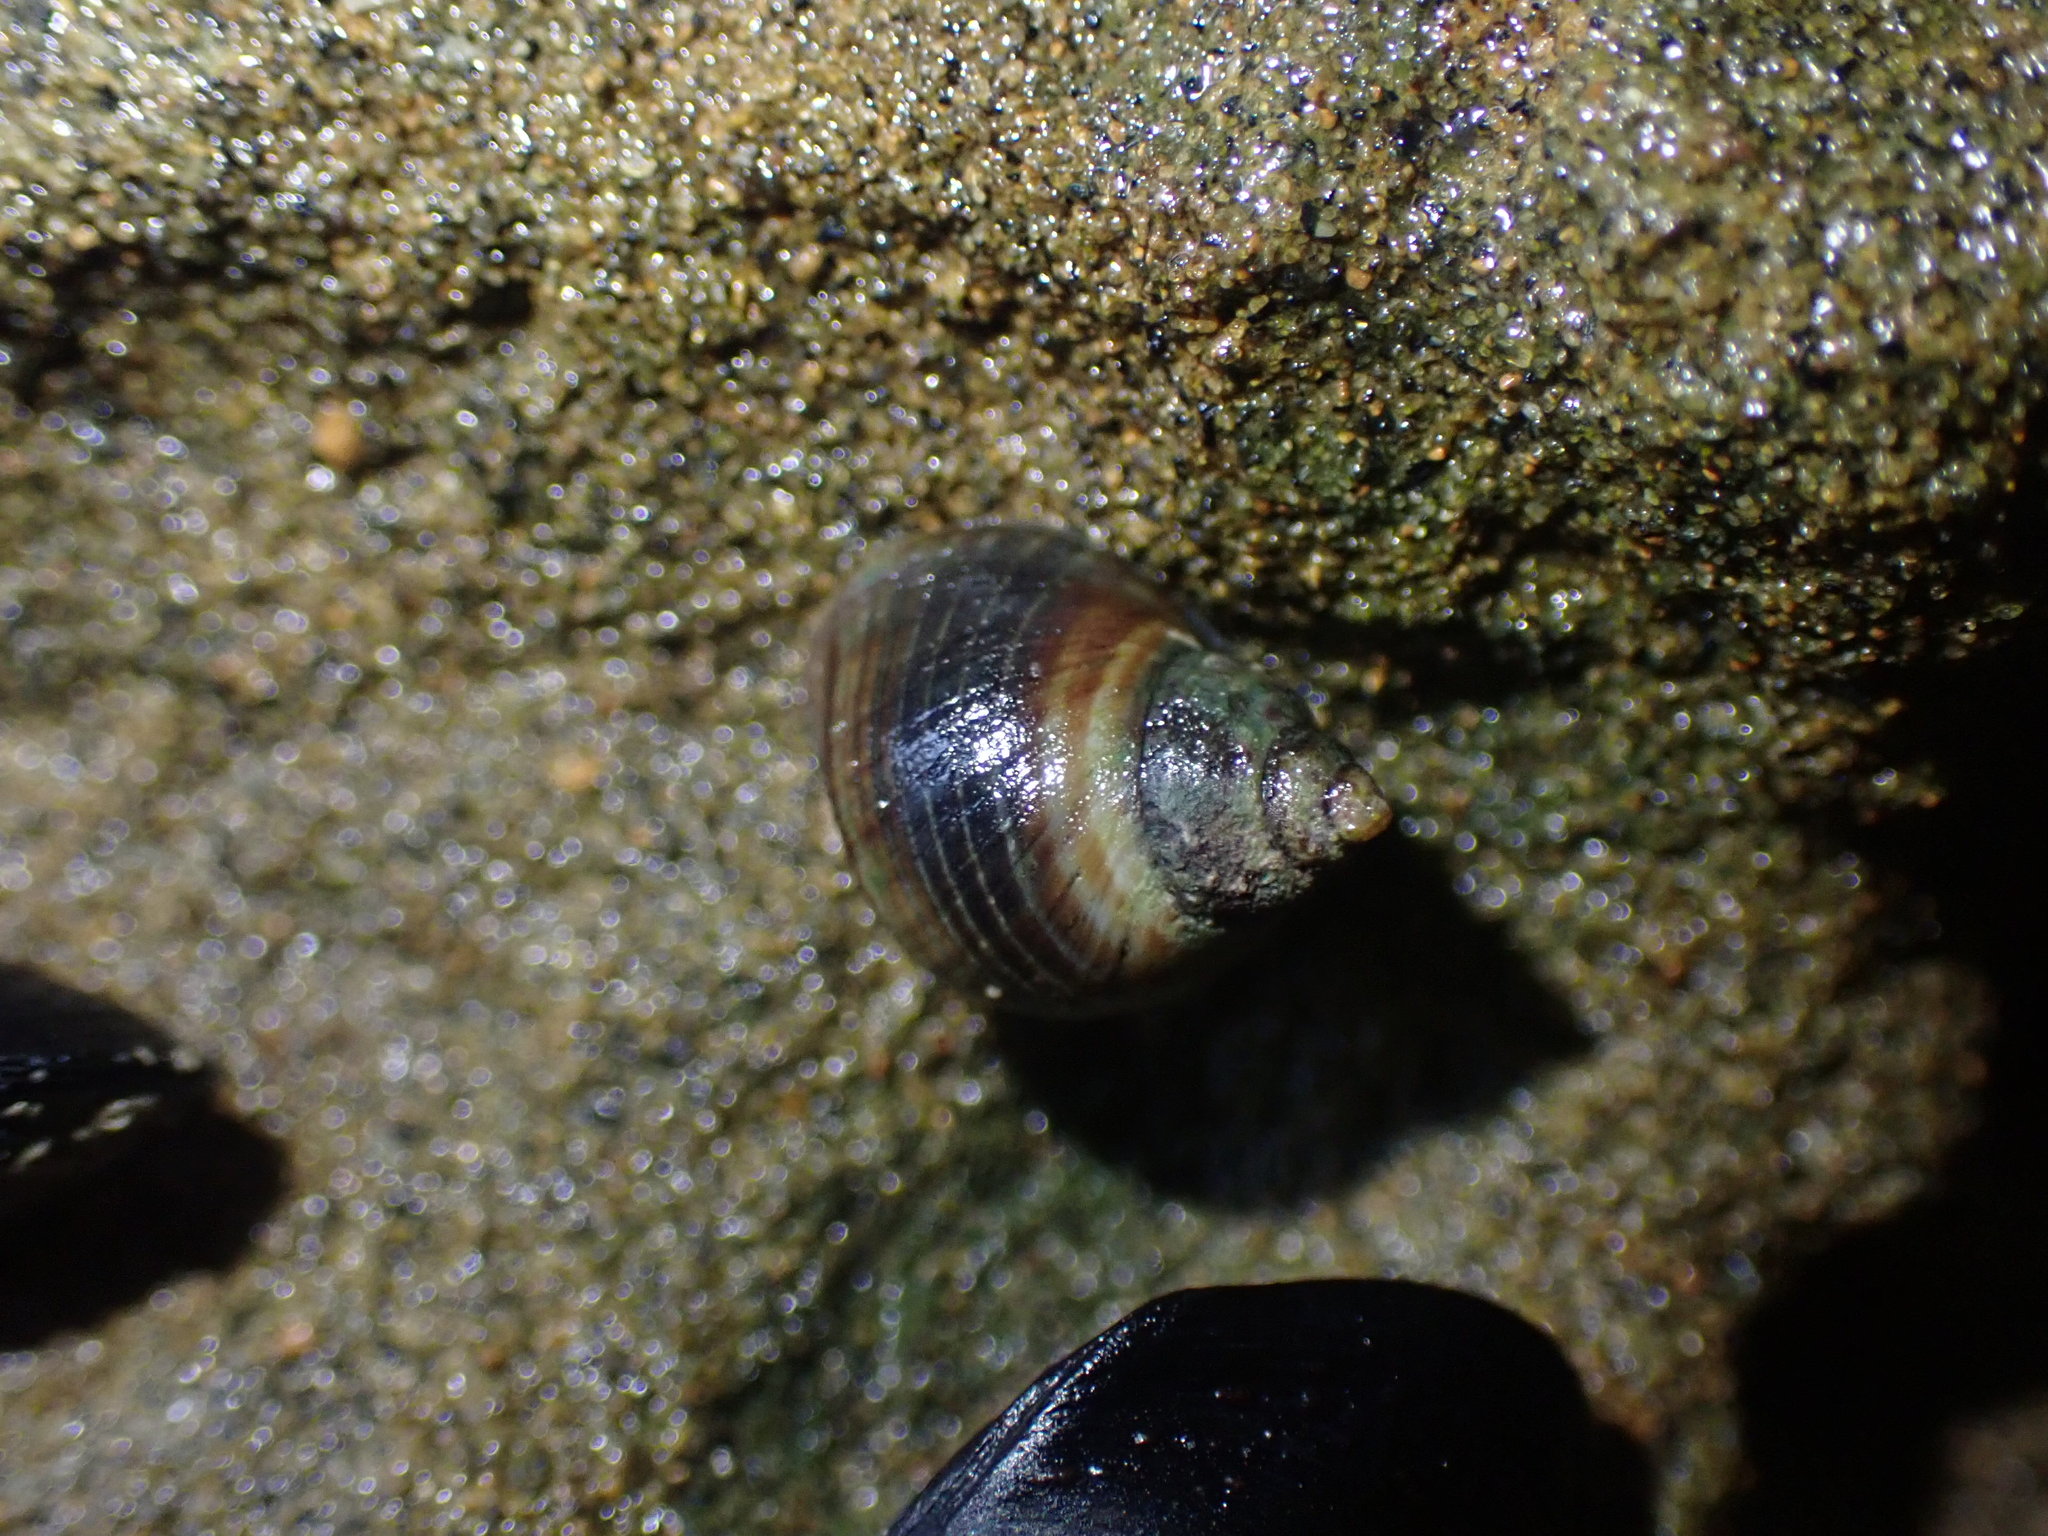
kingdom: Animalia
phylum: Mollusca
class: Gastropoda
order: Littorinimorpha
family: Littorinidae
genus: Austrolittorina
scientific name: Austrolittorina cincta
